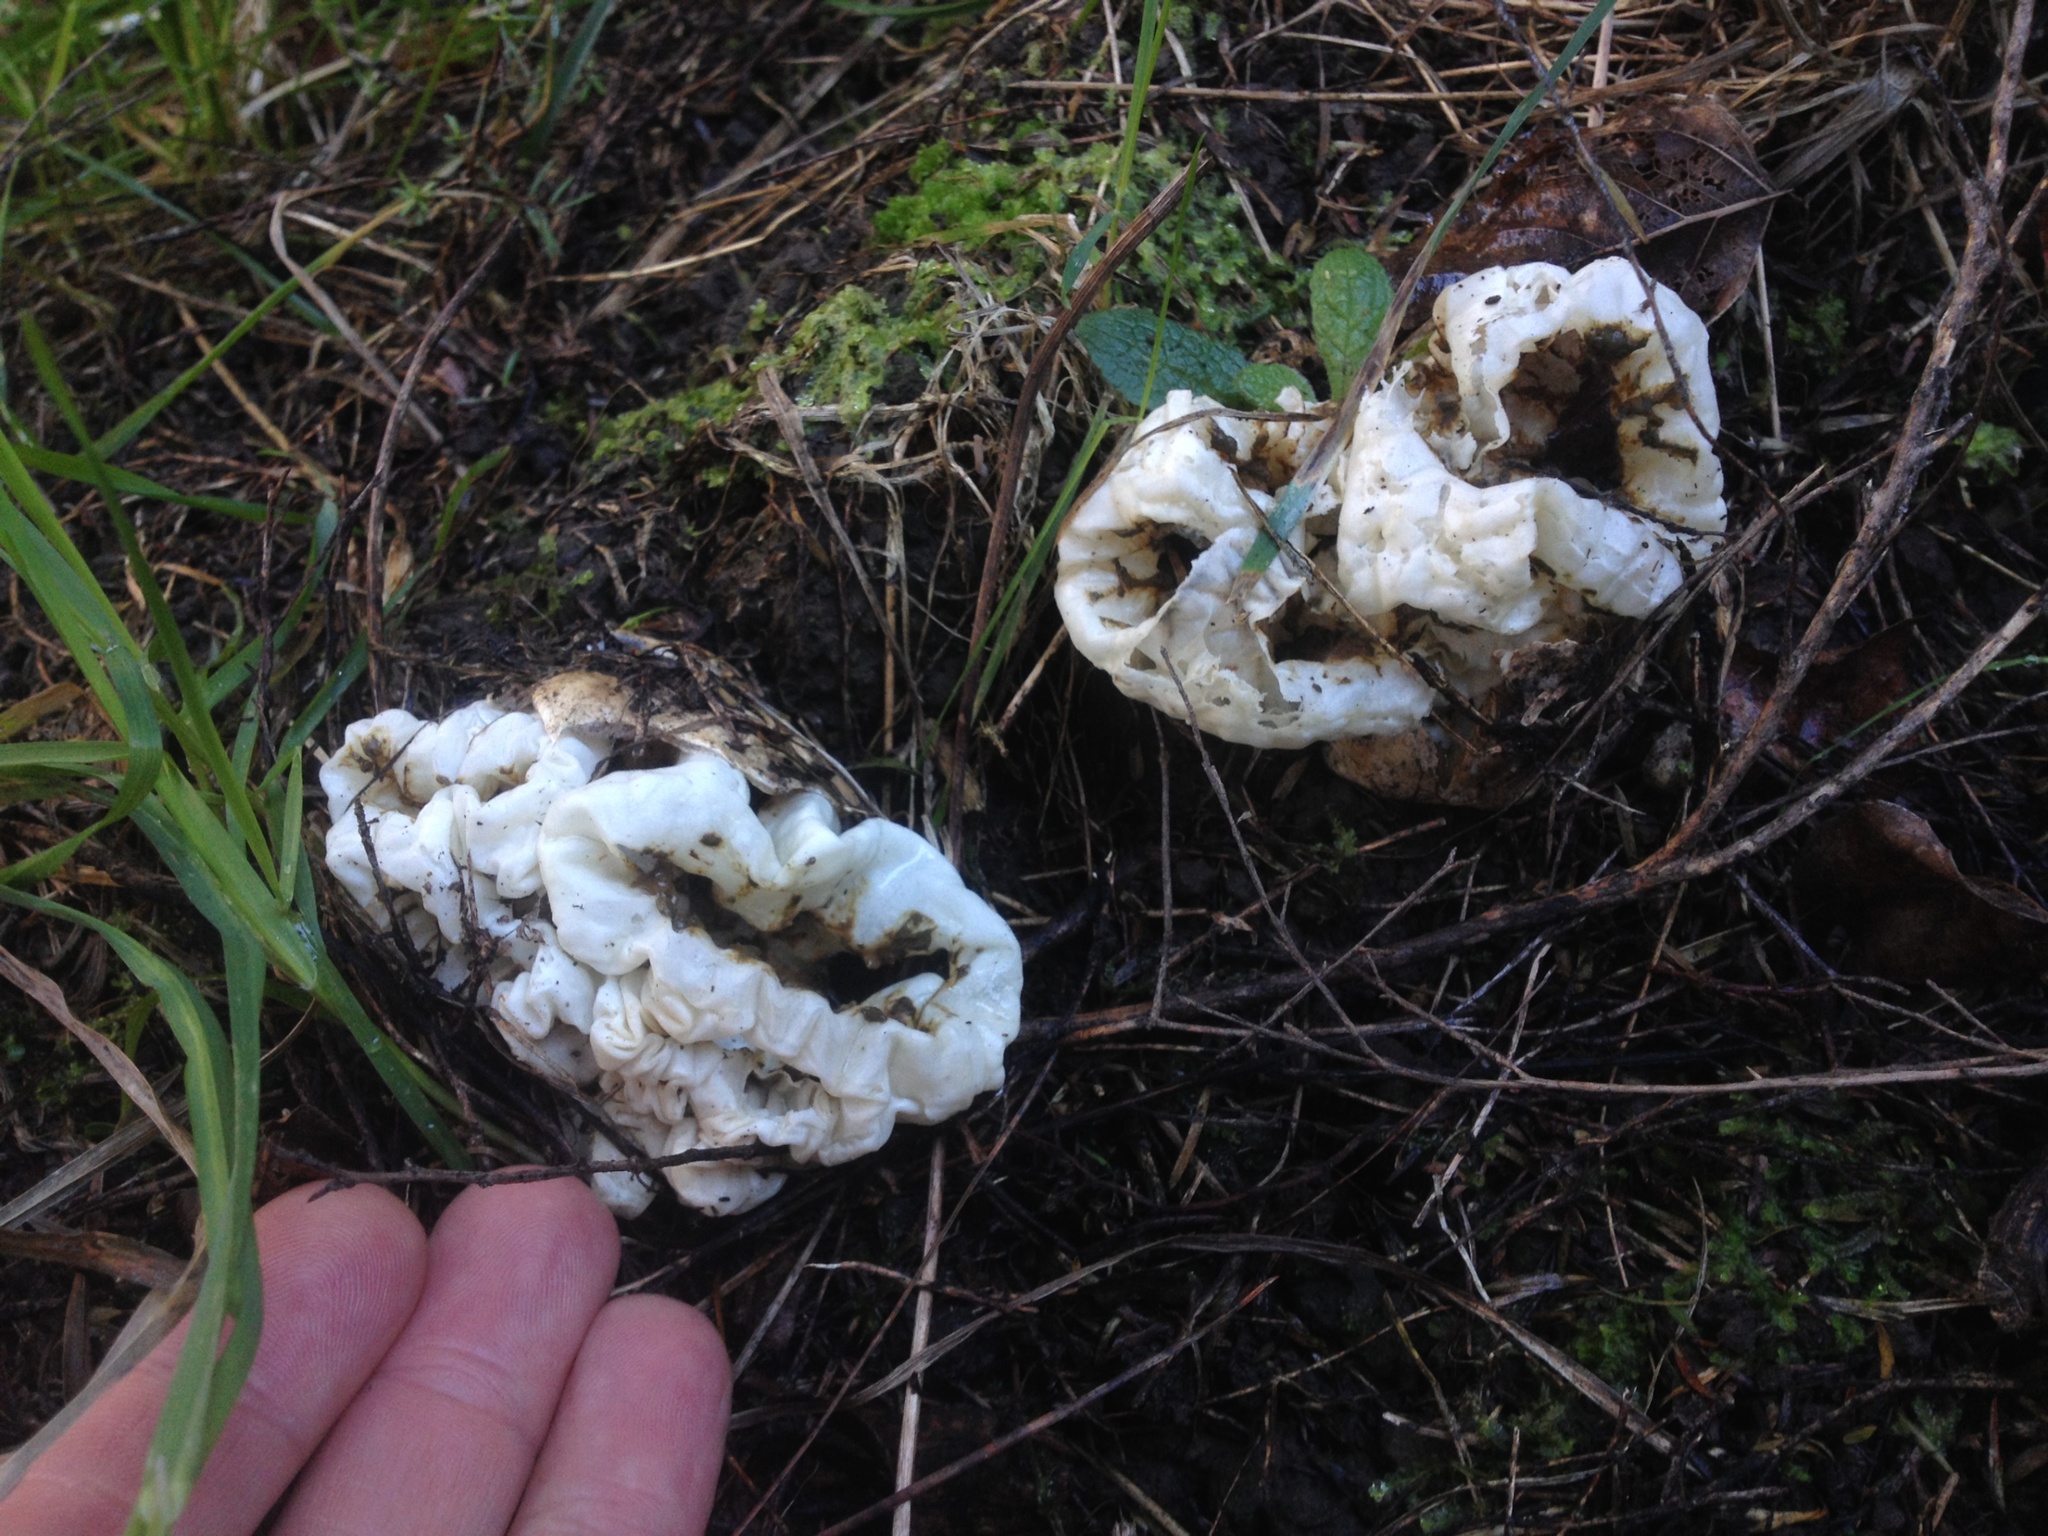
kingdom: Fungi
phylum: Basidiomycota
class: Agaricomycetes
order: Phallales
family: Phallaceae
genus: Ileodictyon
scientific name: Ileodictyon cibarium
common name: Basket fungus
